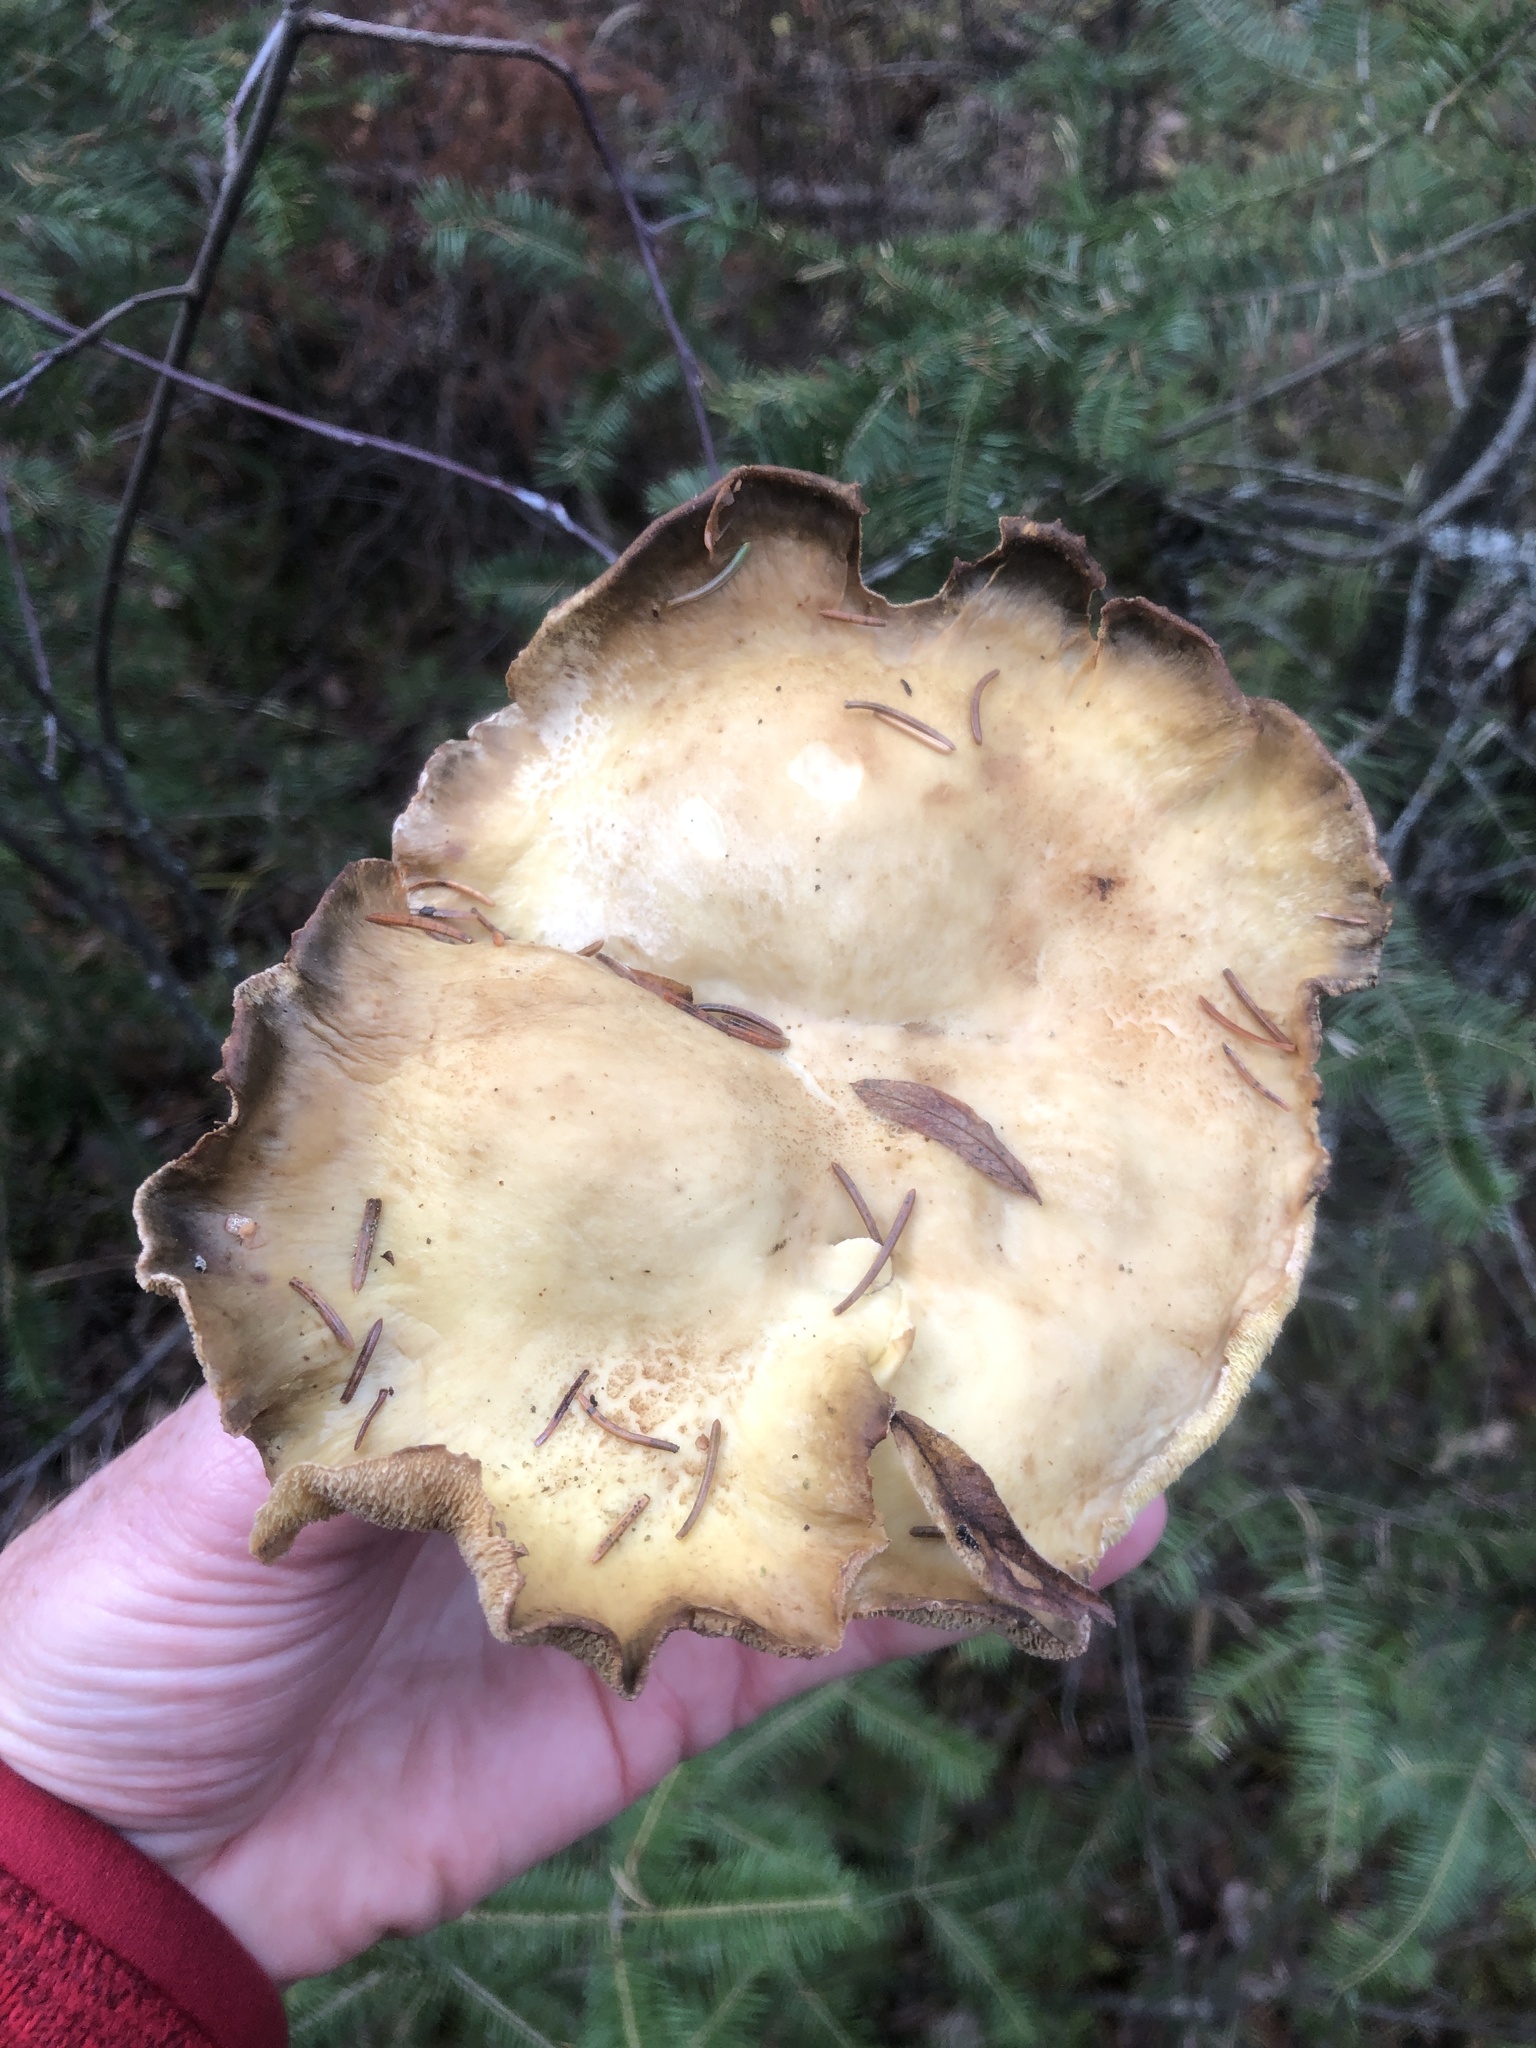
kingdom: Fungi
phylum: Basidiomycota
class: Agaricomycetes
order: Russulales
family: Albatrellaceae
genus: Albatrellus
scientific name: Albatrellus ovinus
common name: Forest lamb
